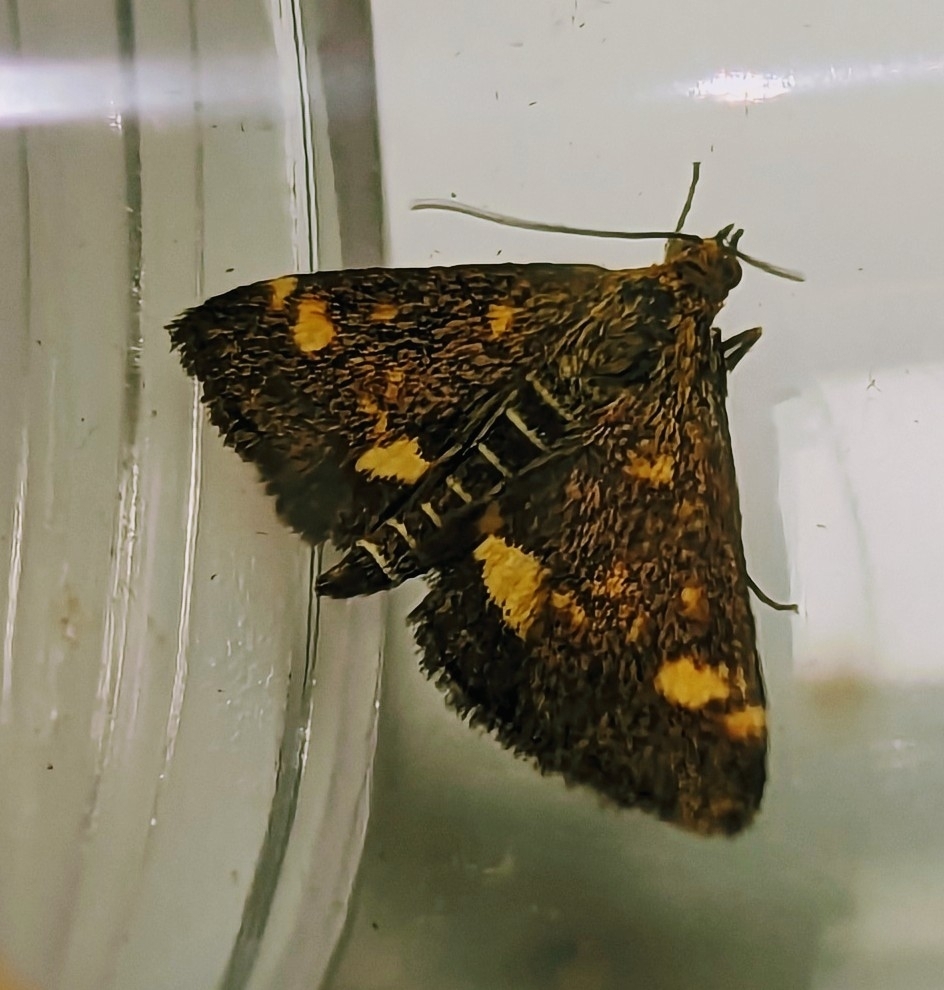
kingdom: Animalia
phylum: Arthropoda
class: Insecta
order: Lepidoptera
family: Crambidae
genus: Pyrausta
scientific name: Pyrausta aurata
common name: Small purple & gold
